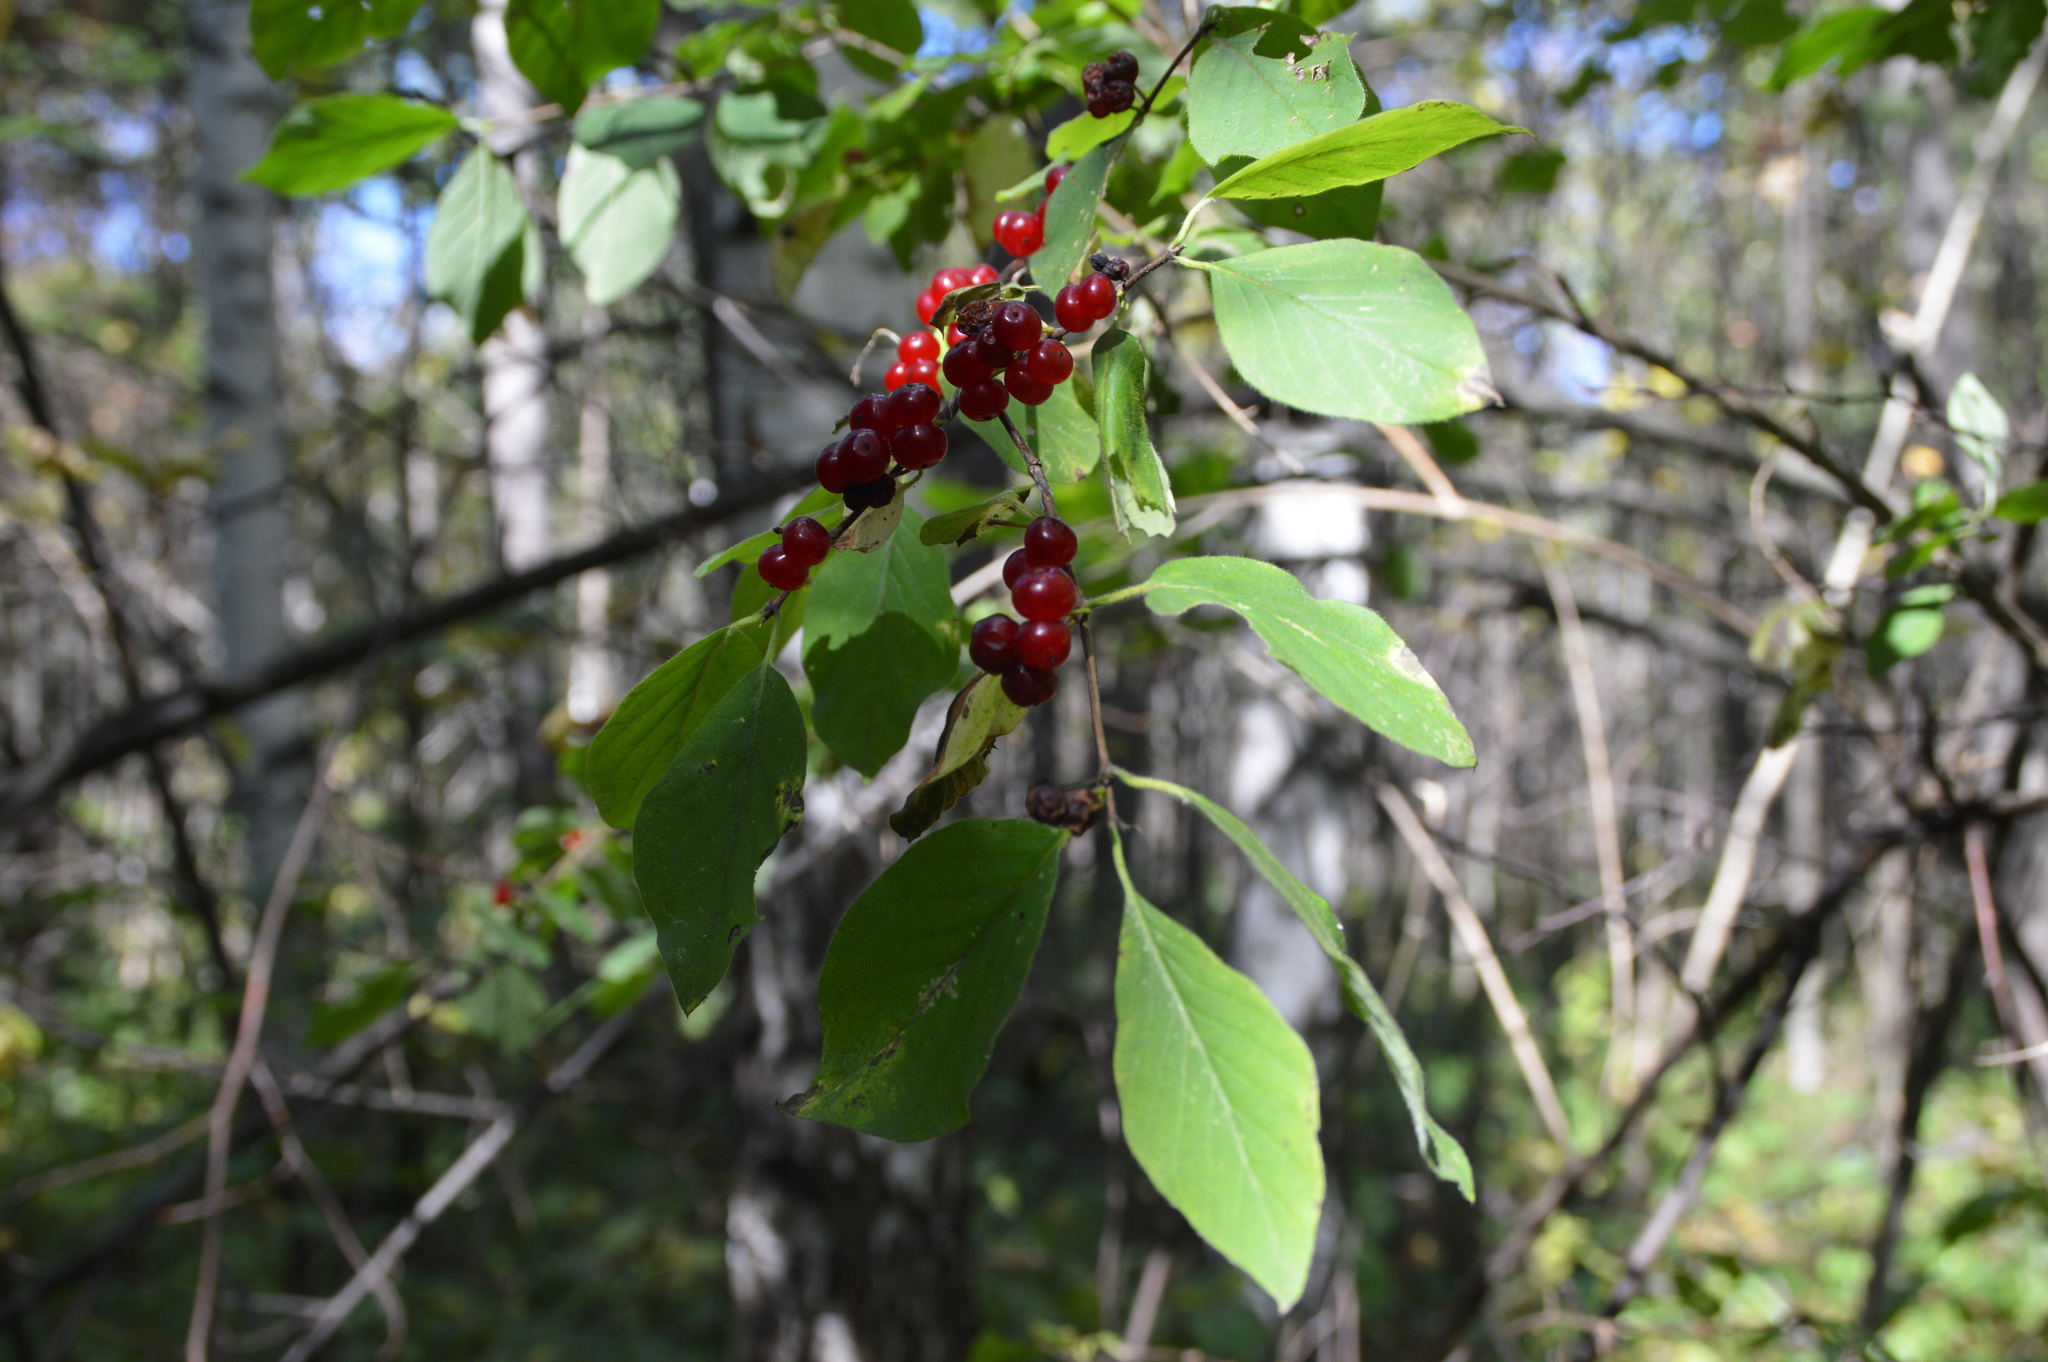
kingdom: Plantae
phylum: Tracheophyta
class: Magnoliopsida
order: Malvales
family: Thymelaeaceae
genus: Daphne
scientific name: Daphne mezereum
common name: Mezereon
